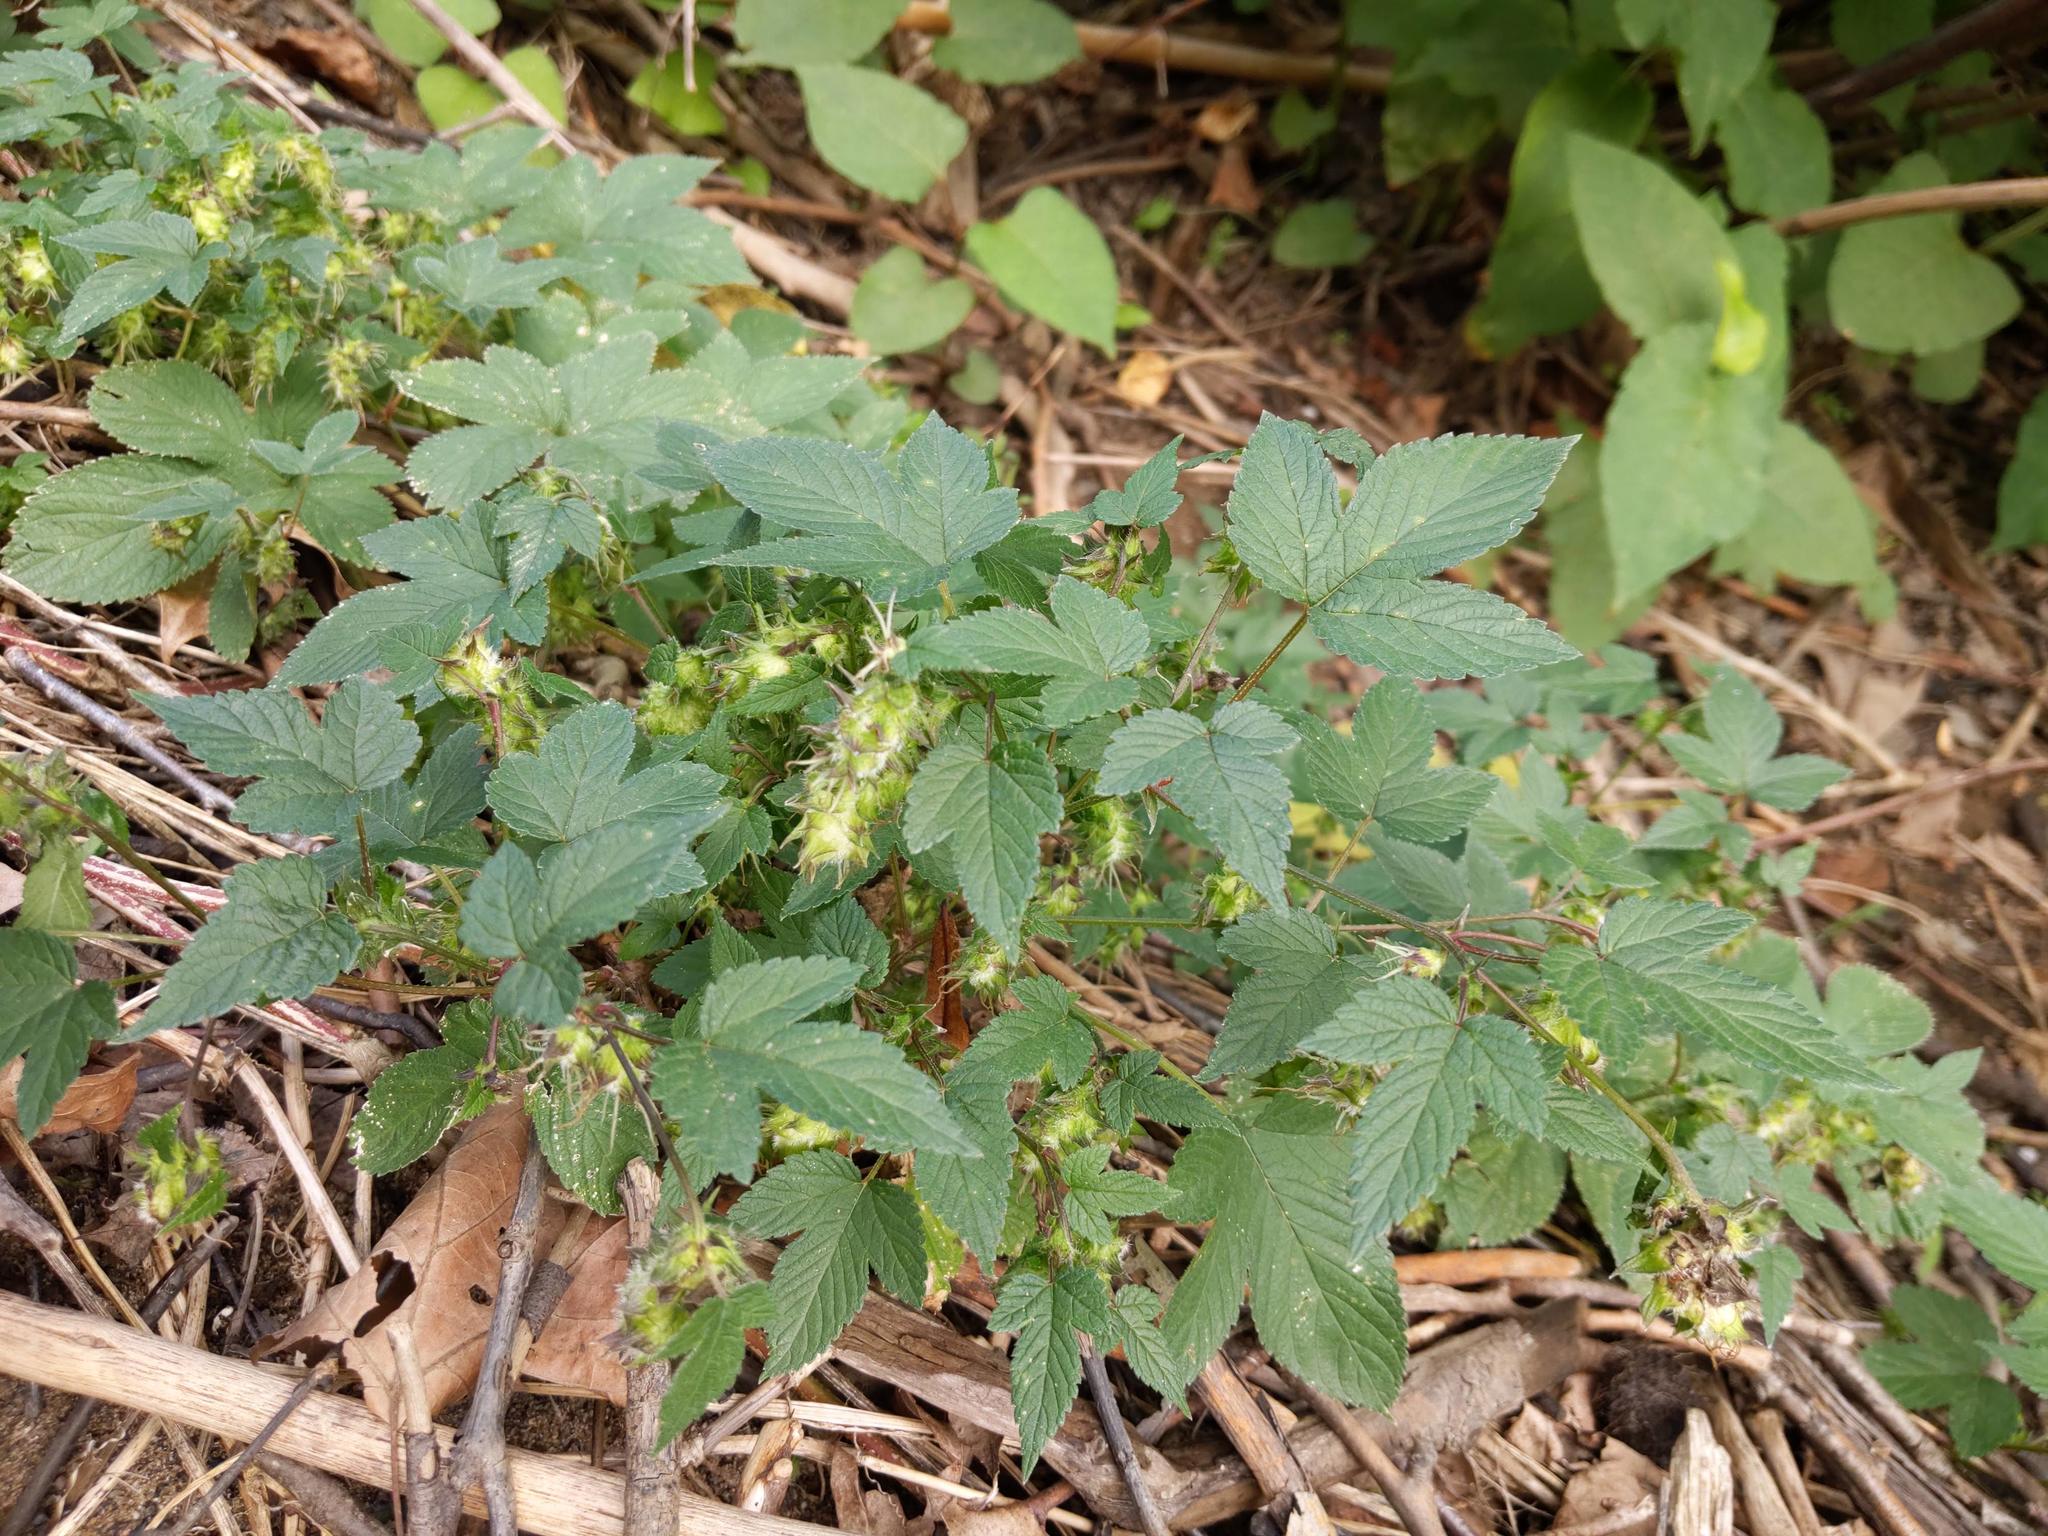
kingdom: Plantae
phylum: Tracheophyta
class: Magnoliopsida
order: Rosales
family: Cannabaceae
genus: Humulus
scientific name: Humulus scandens
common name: Japanese hop
